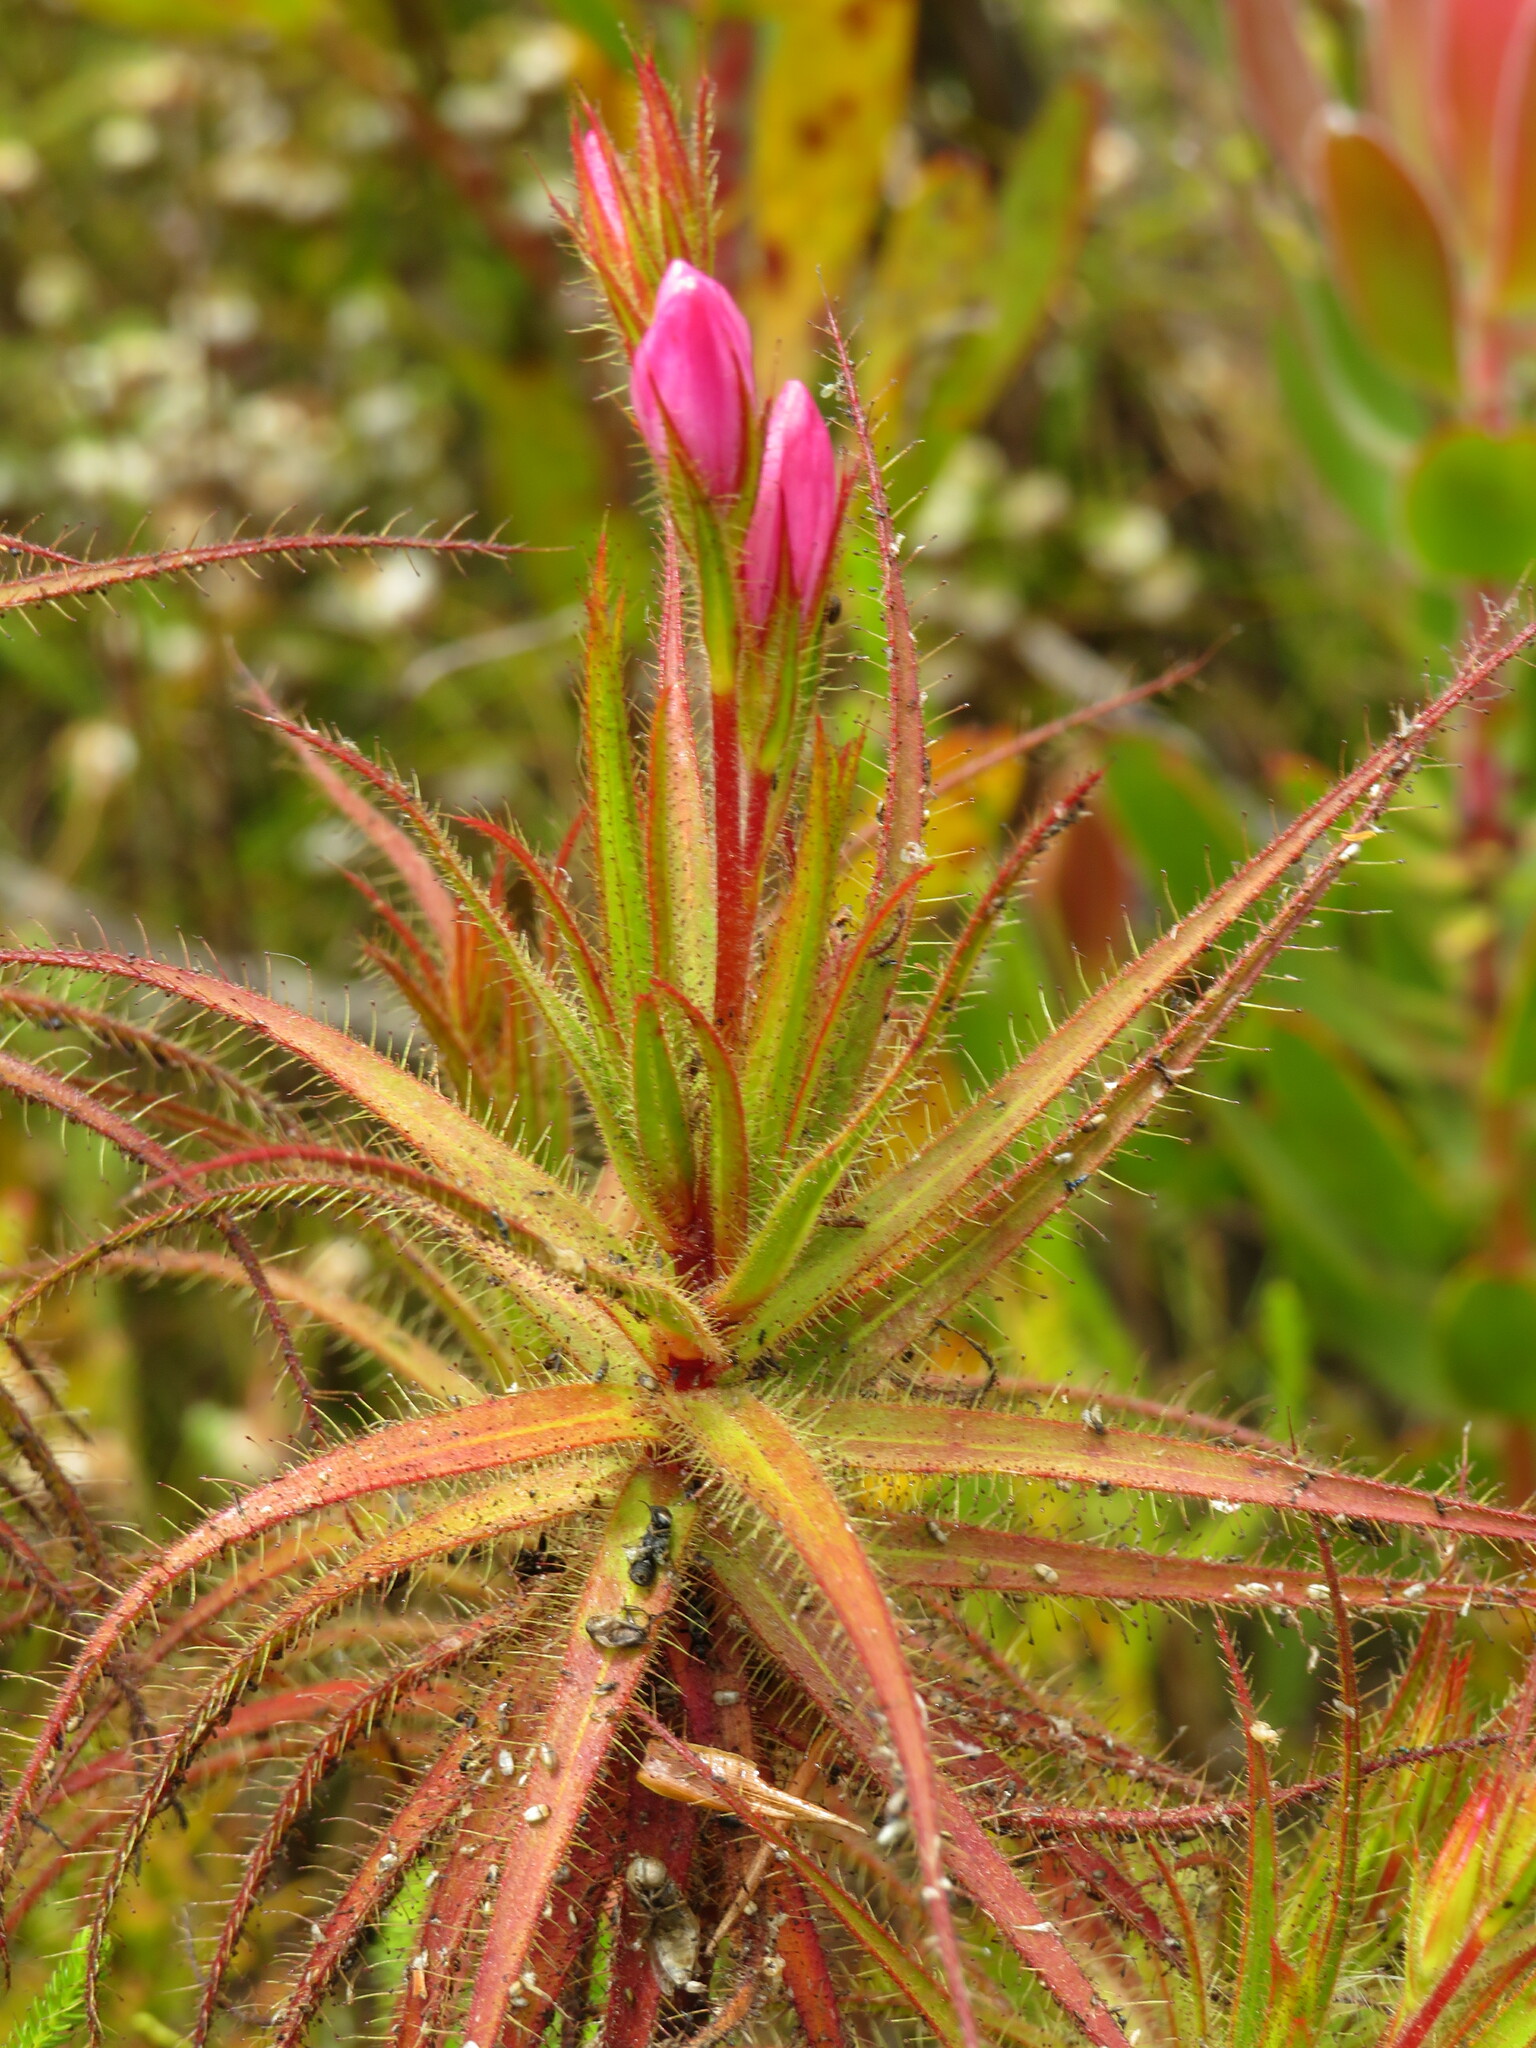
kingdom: Plantae
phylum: Tracheophyta
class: Magnoliopsida
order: Ericales
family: Roridulaceae
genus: Roridula
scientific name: Roridula gorgonias
